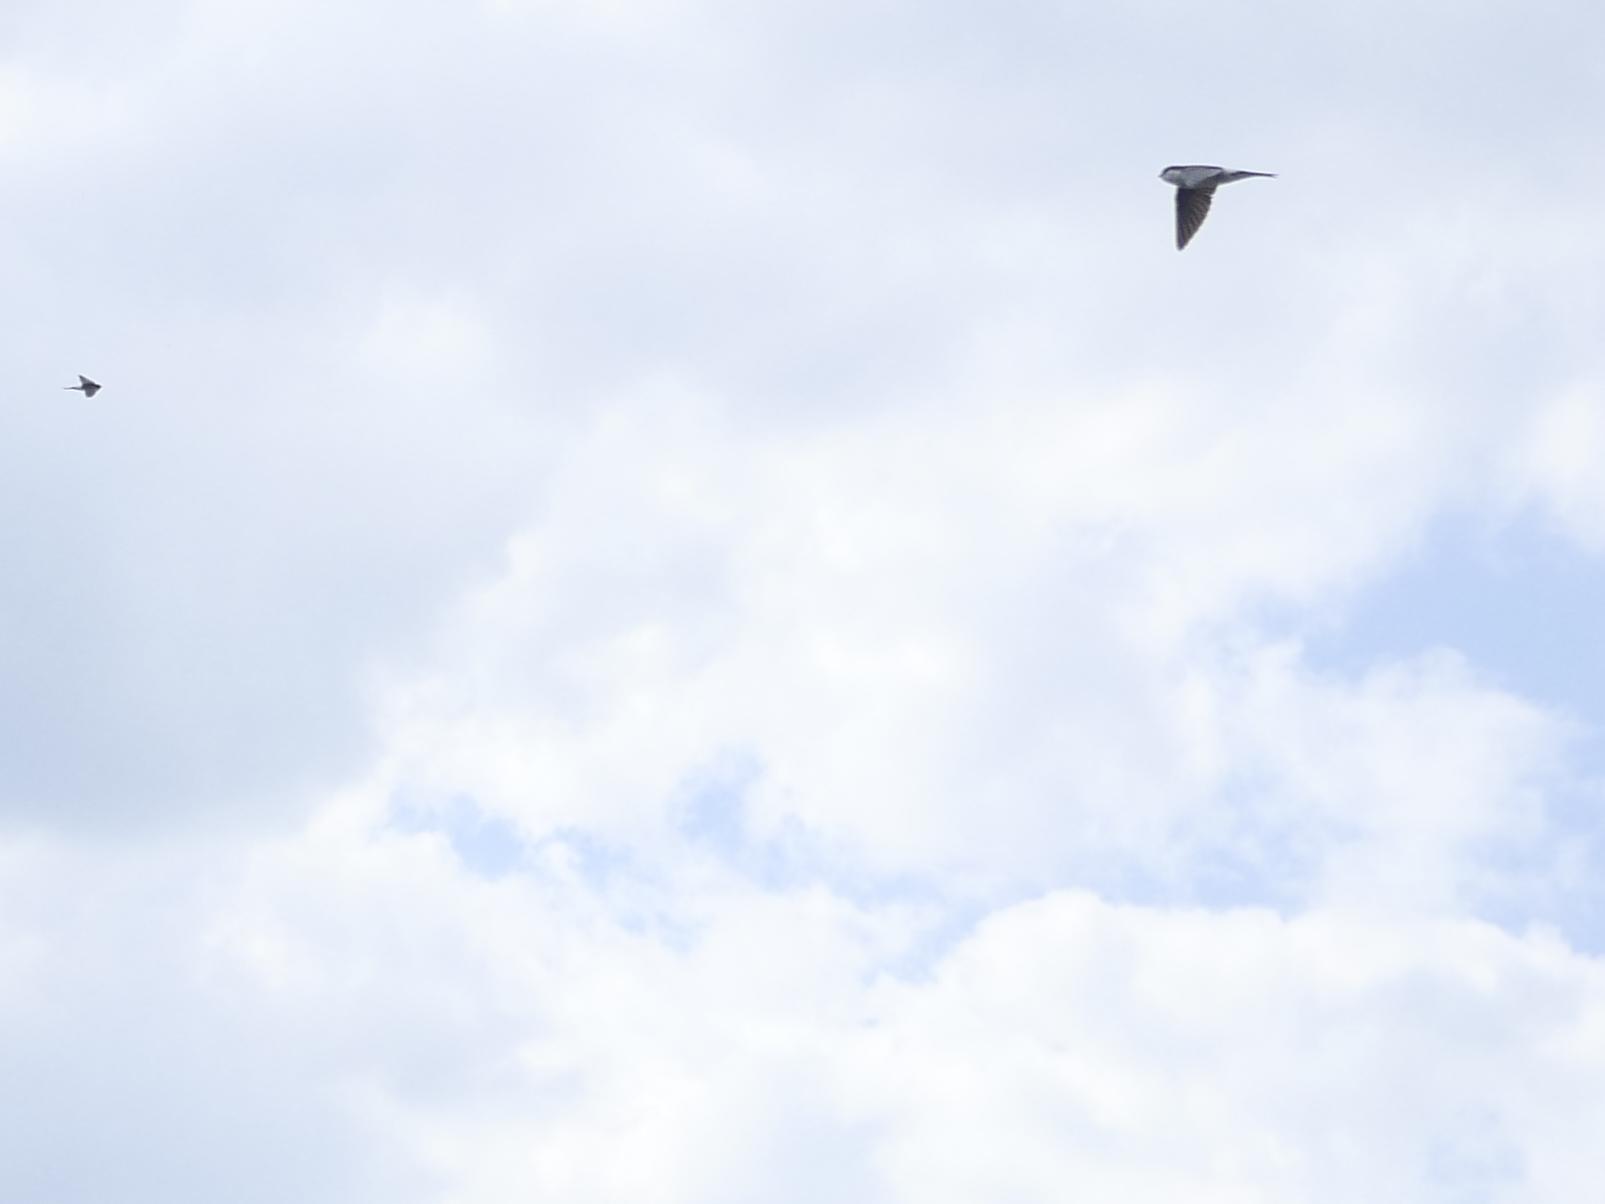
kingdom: Animalia
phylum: Chordata
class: Aves
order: Passeriformes
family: Hirundinidae
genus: Delichon
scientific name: Delichon urbicum
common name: Common house martin
